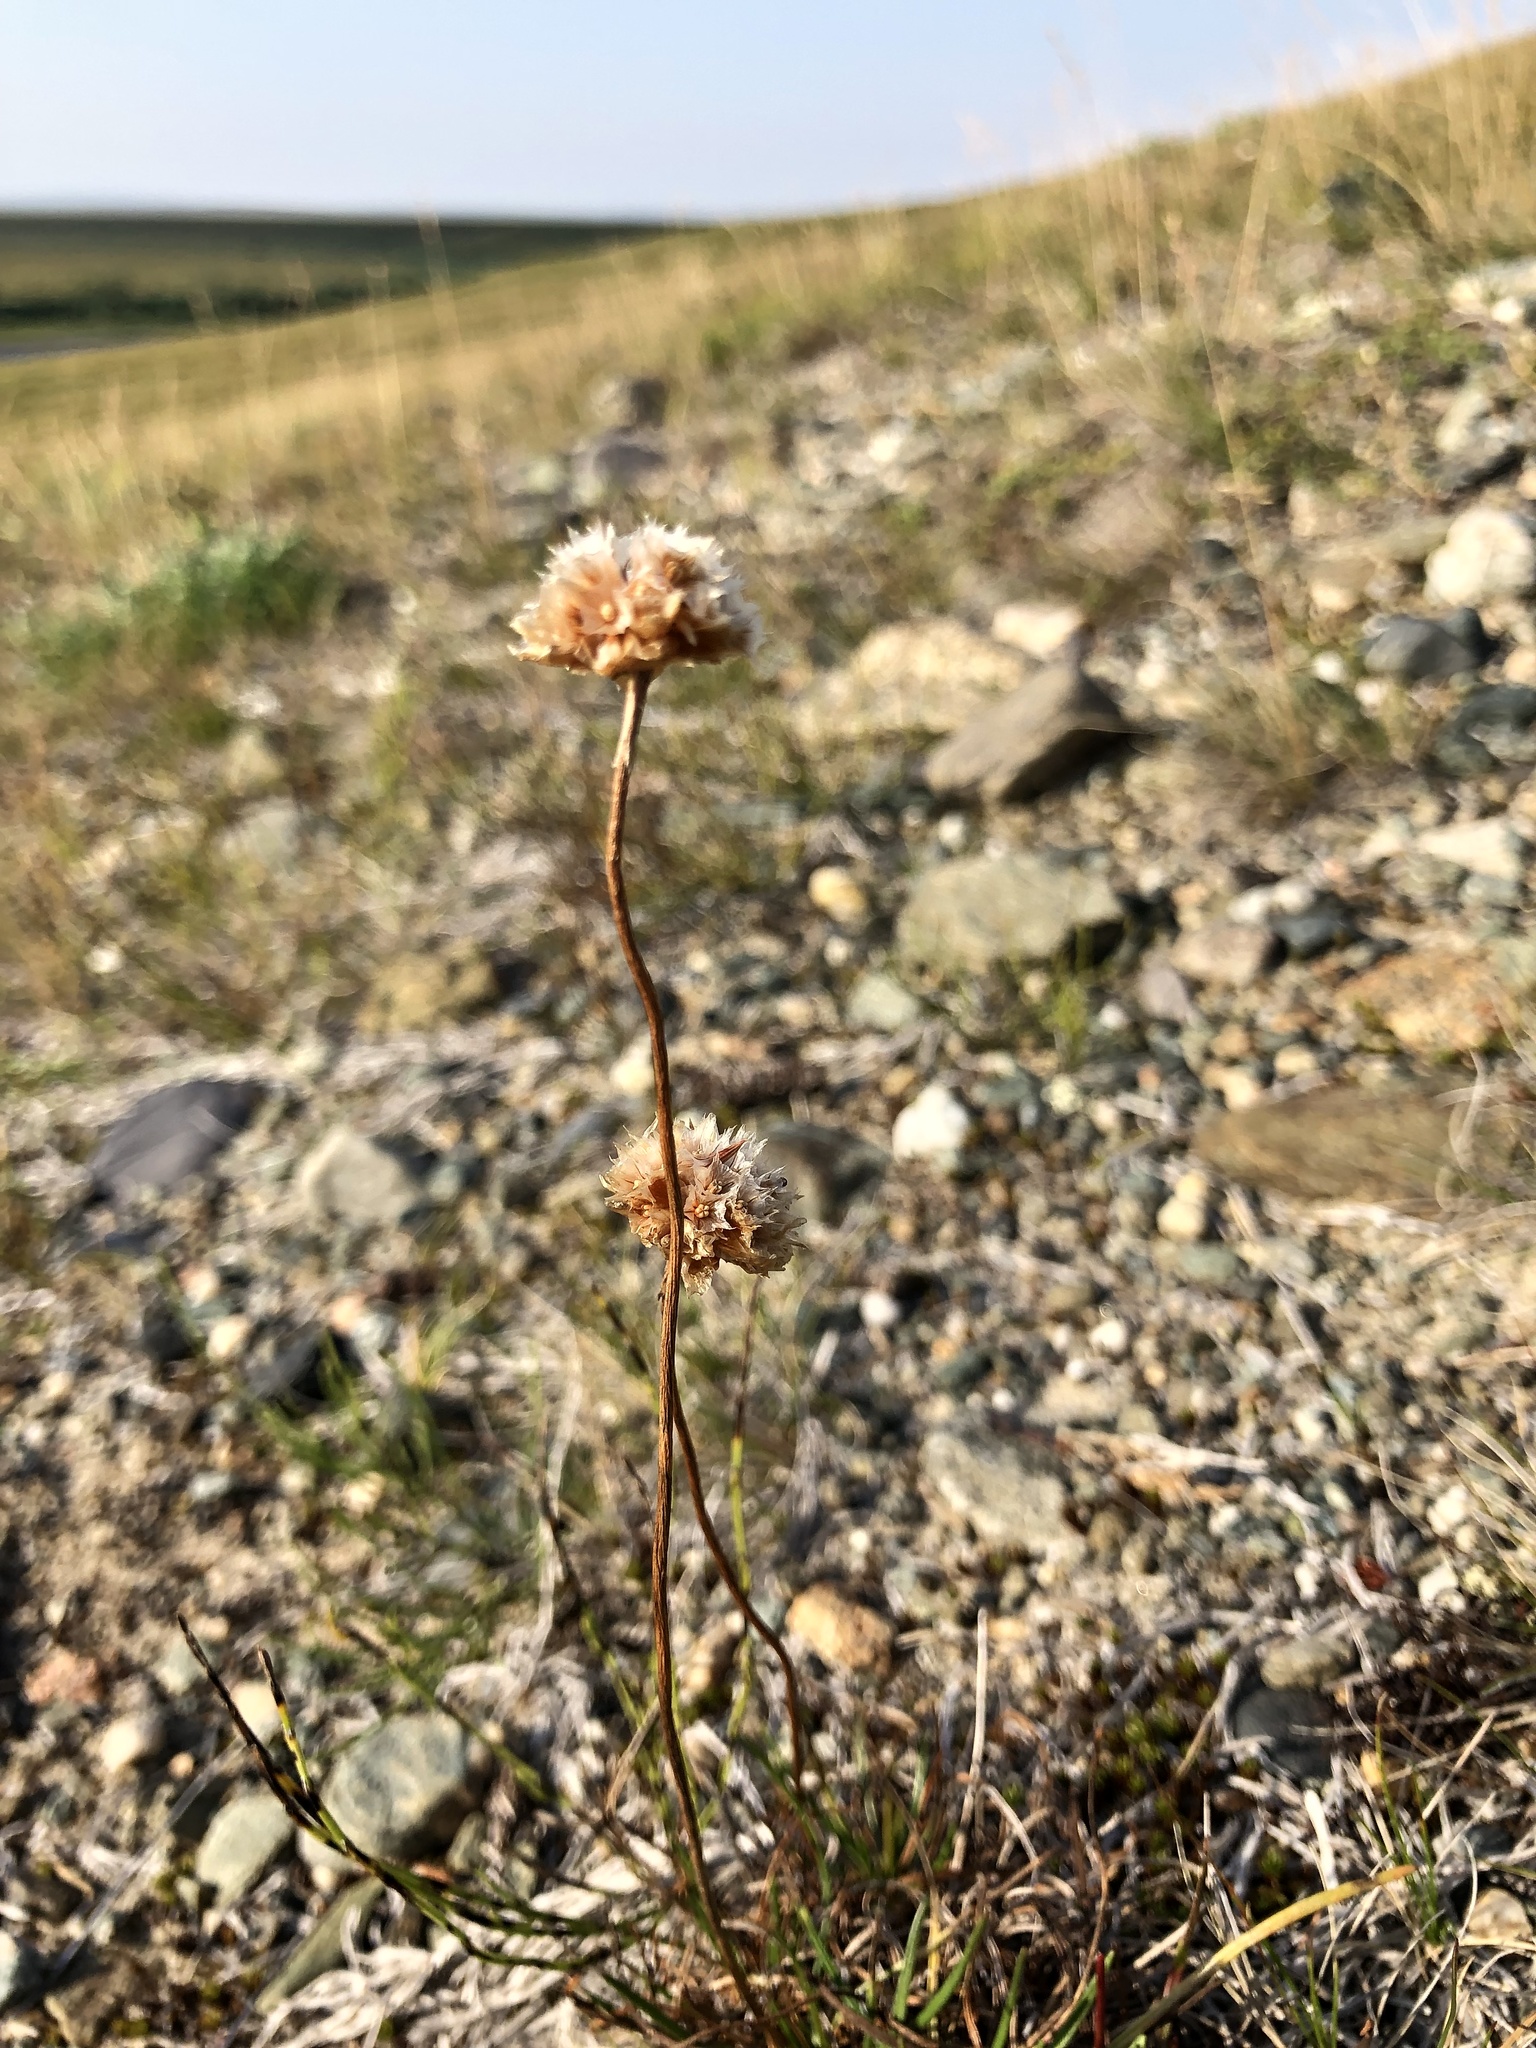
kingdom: Plantae
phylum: Tracheophyta
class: Magnoliopsida
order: Caryophyllales
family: Plumbaginaceae
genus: Armeria
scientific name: Armeria maritima
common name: Thrift
